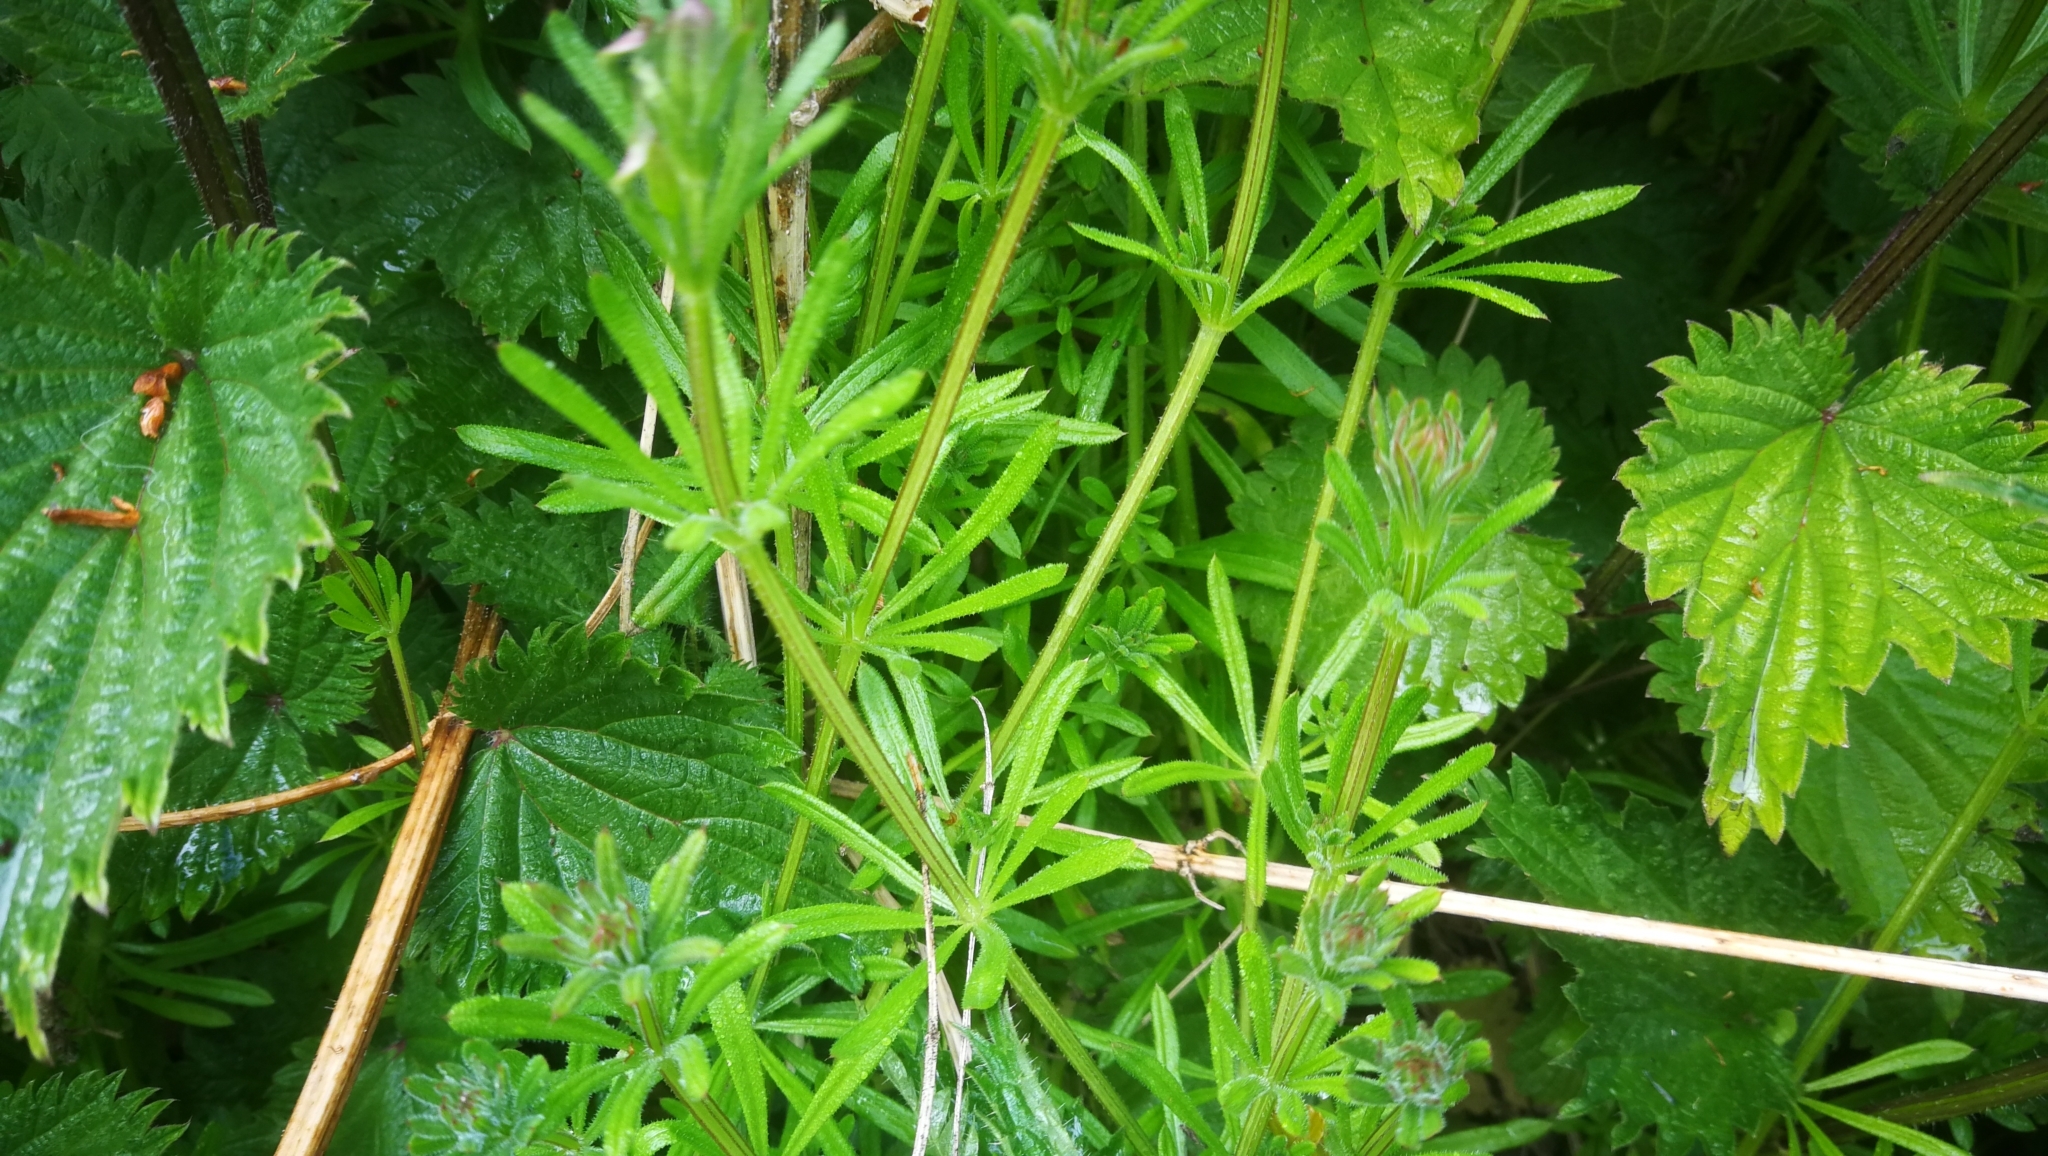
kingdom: Plantae
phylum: Tracheophyta
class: Magnoliopsida
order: Gentianales
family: Rubiaceae
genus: Galium
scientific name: Galium aparine
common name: Cleavers
